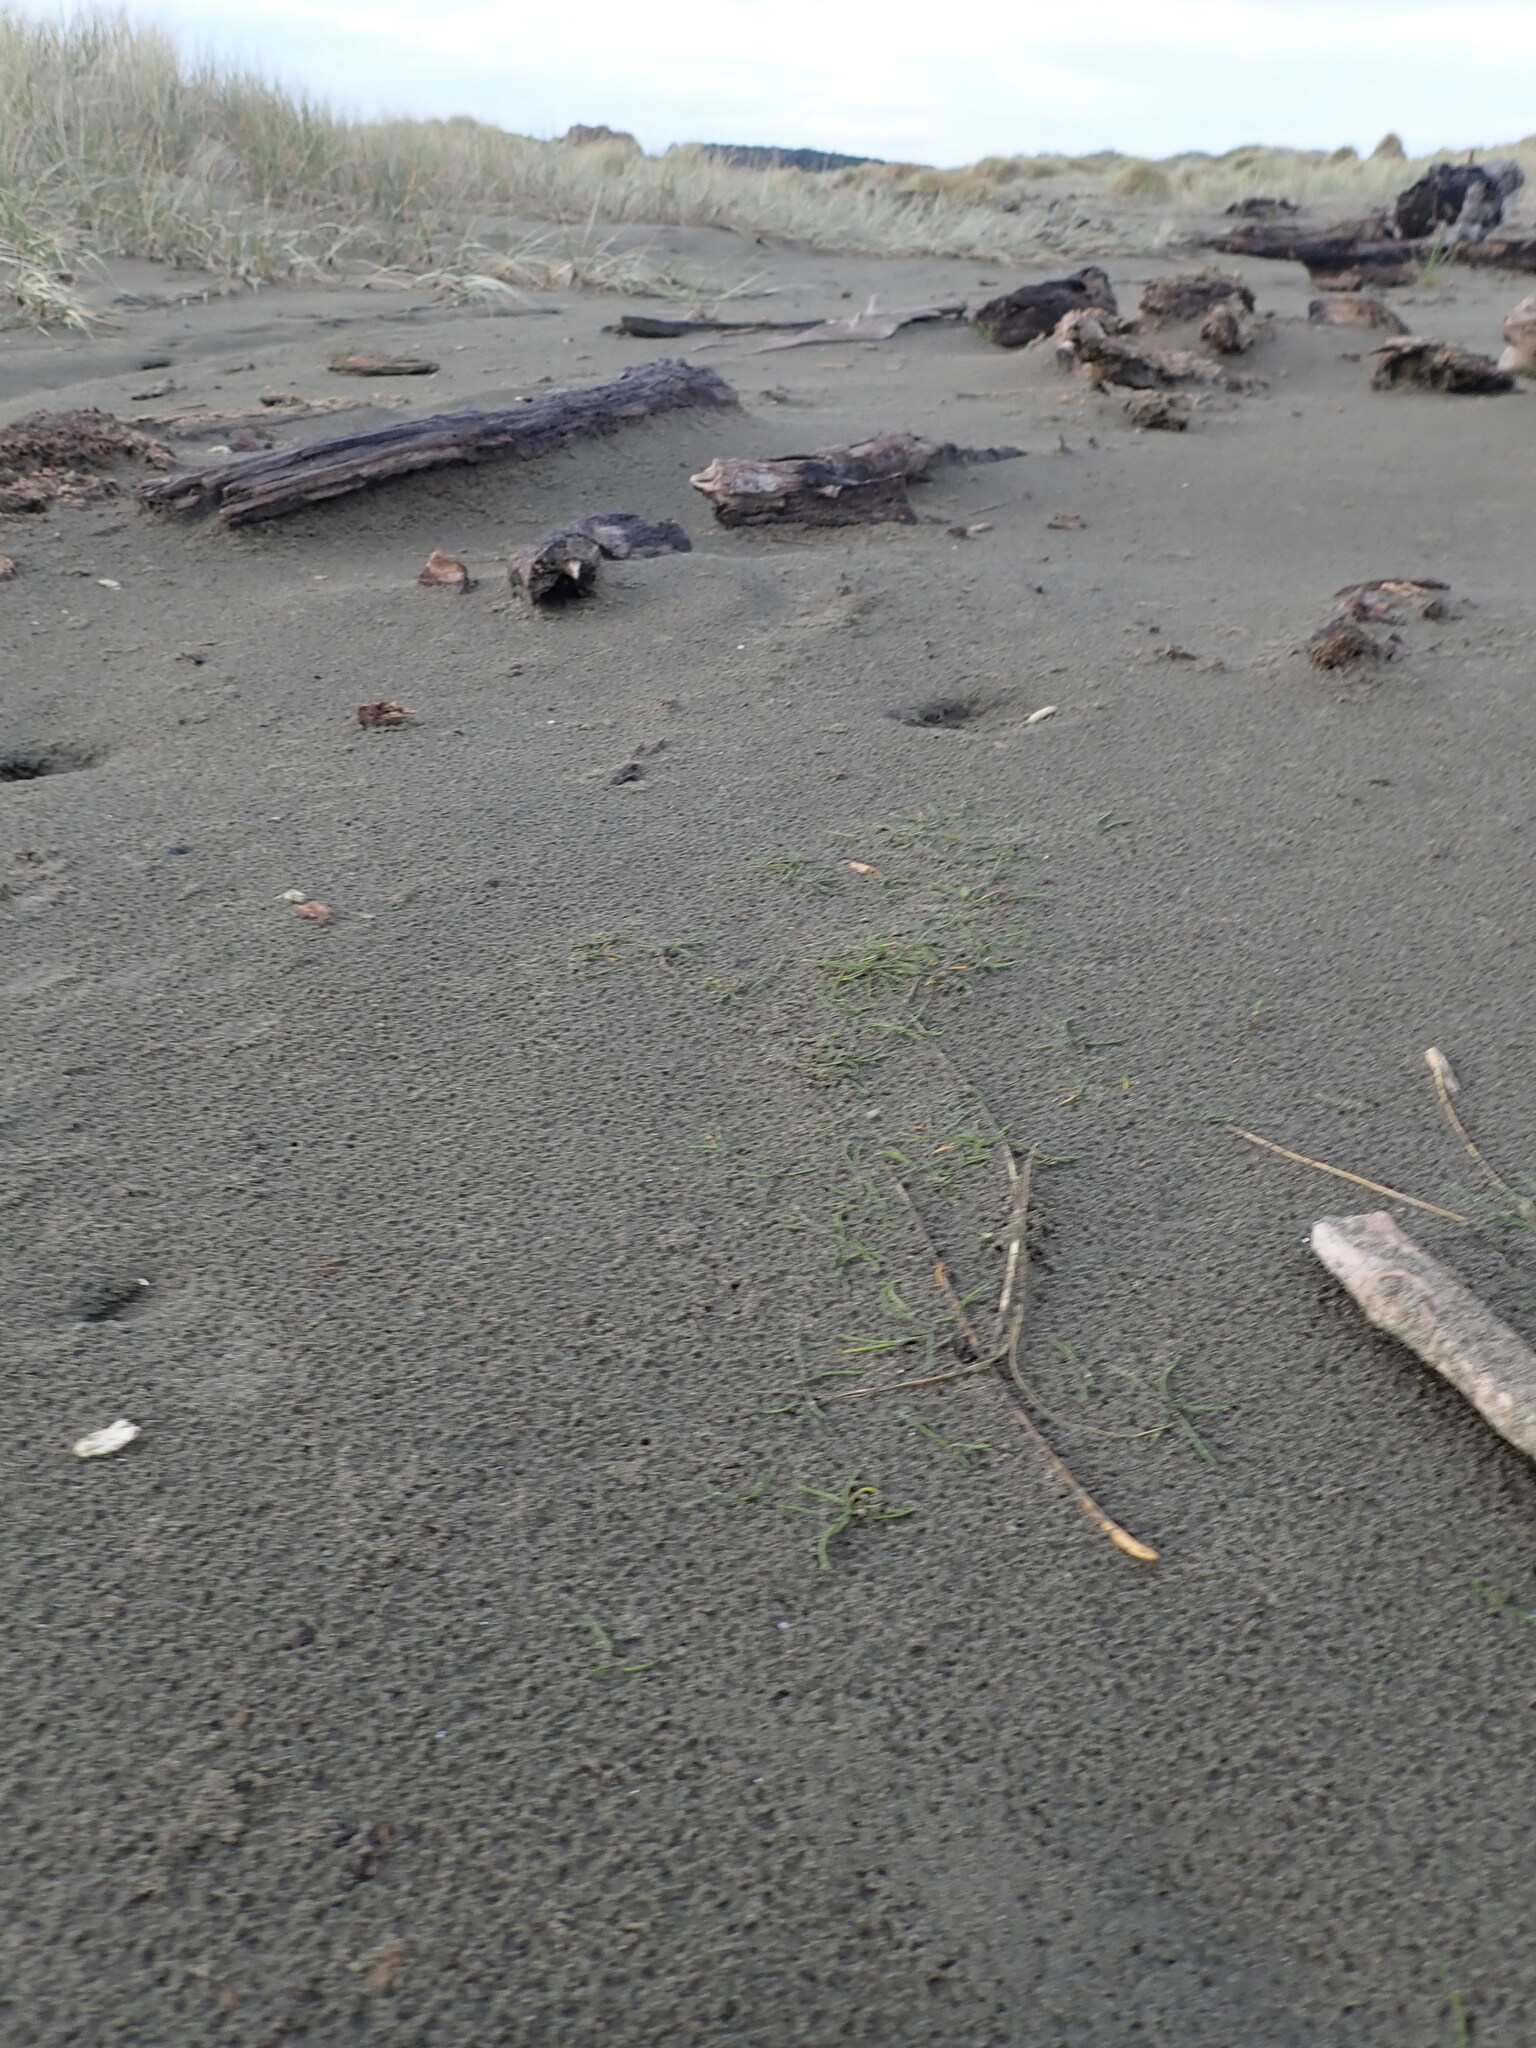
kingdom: Plantae
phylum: Tracheophyta
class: Liliopsida
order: Alismatales
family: Juncaginaceae
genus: Triglochin
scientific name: Triglochin striata
